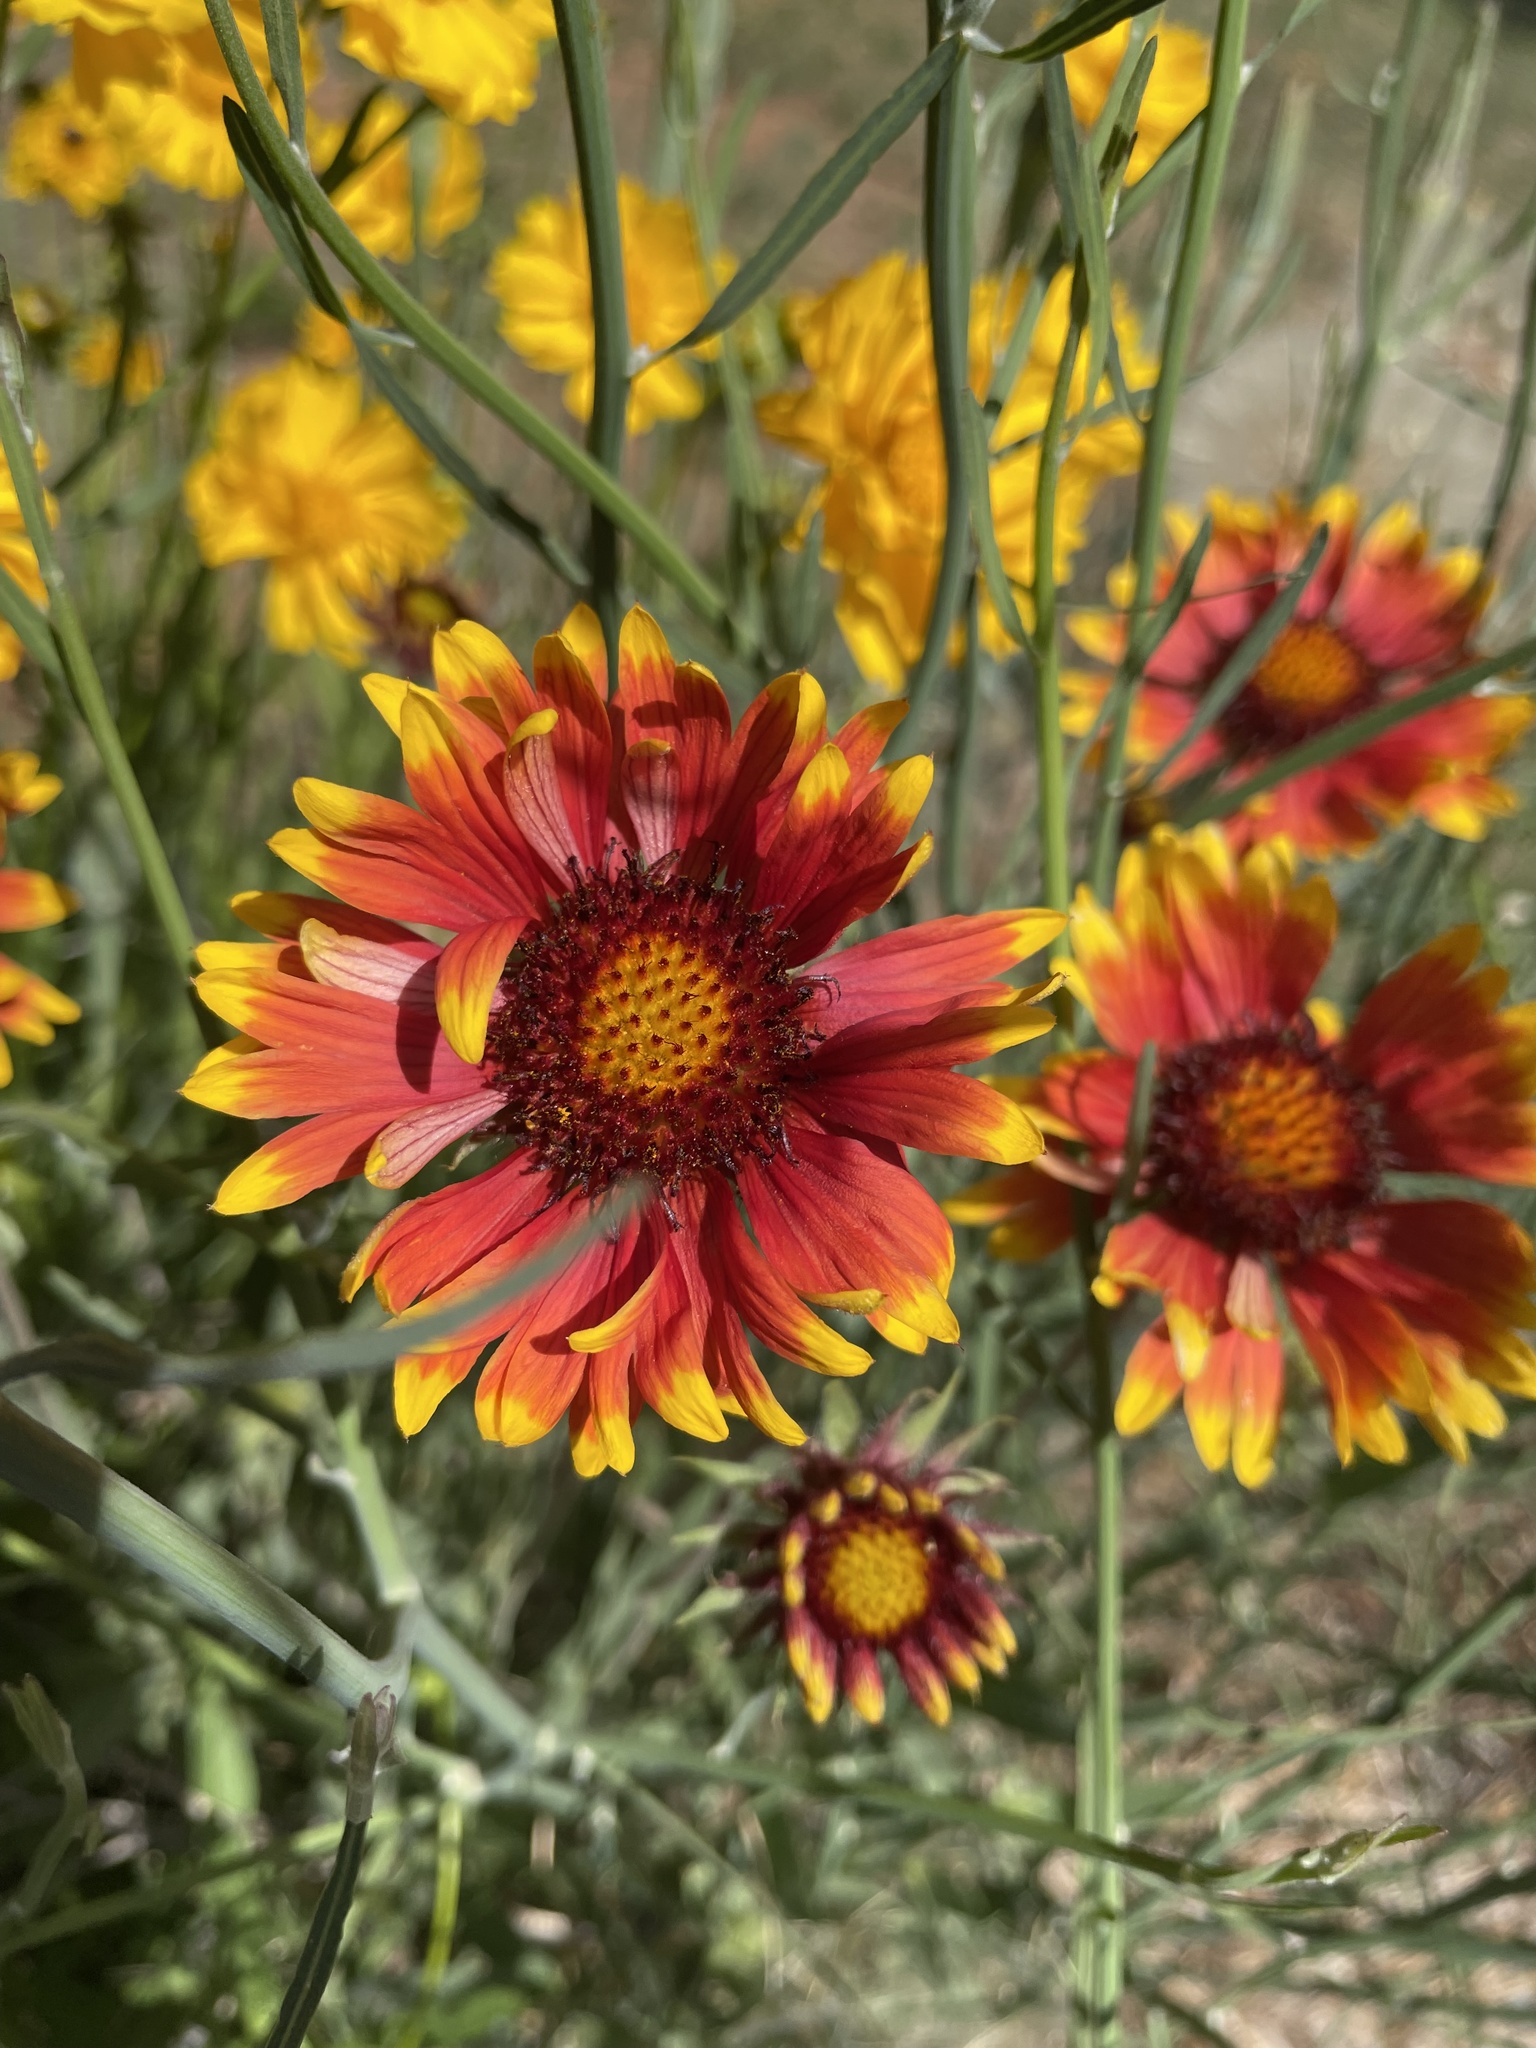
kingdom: Plantae
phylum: Tracheophyta
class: Magnoliopsida
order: Asterales
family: Asteraceae
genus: Gaillardia
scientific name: Gaillardia pulchella
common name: Firewheel
